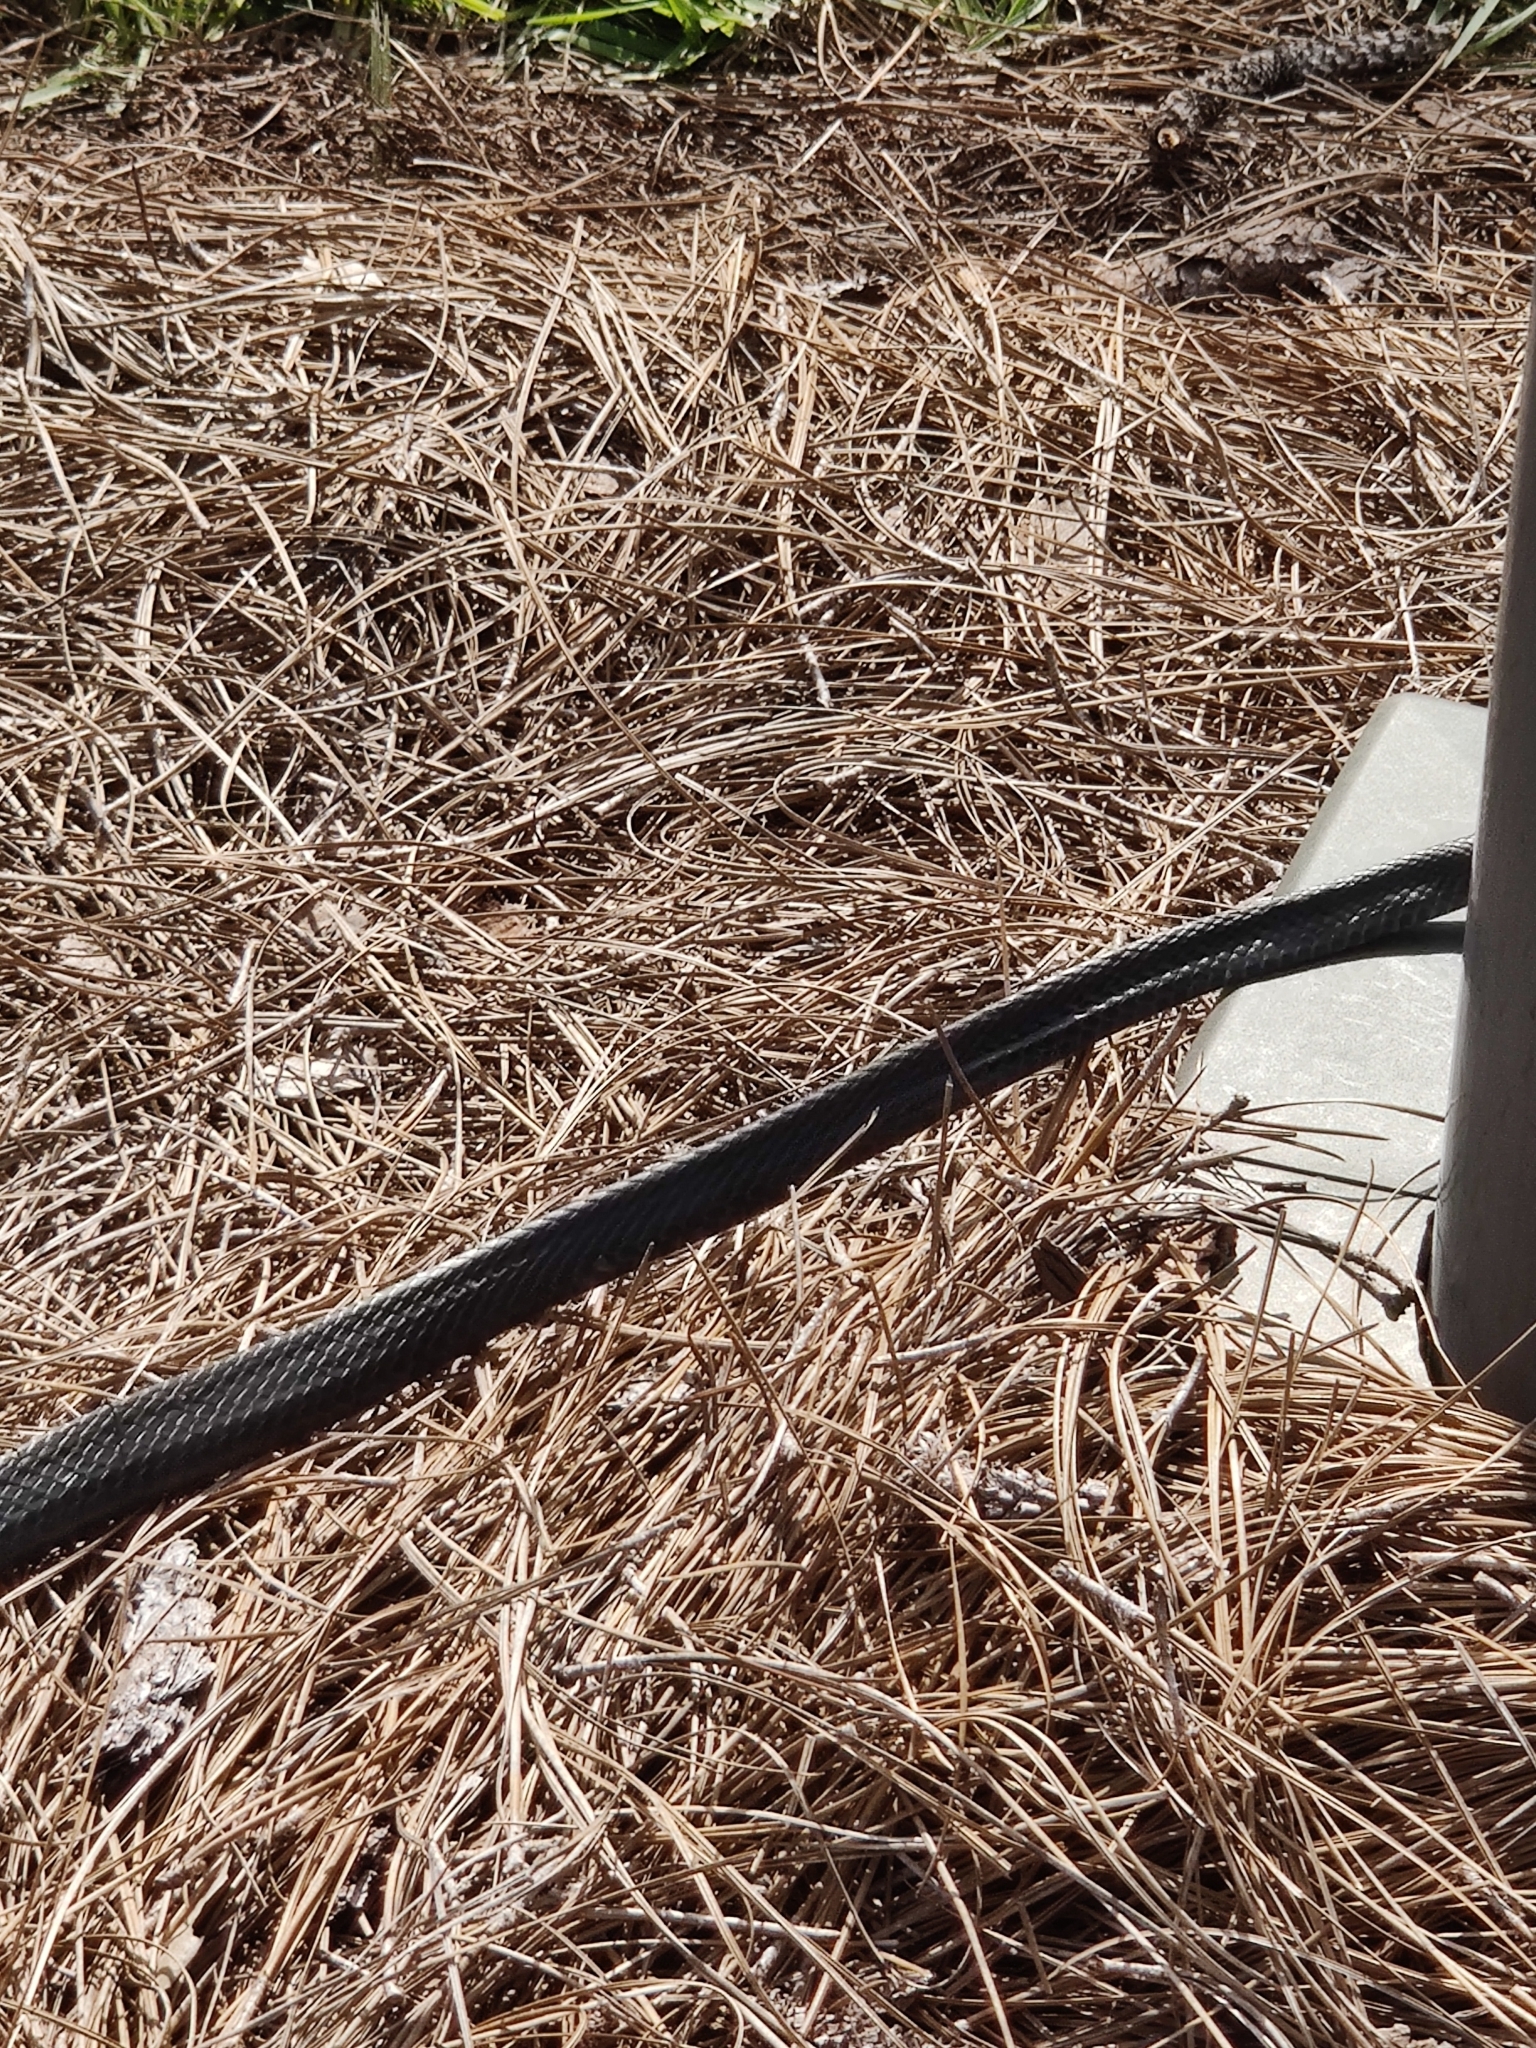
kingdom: Animalia
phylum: Chordata
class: Squamata
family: Colubridae
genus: Coluber
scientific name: Coluber constrictor
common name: Eastern racer
